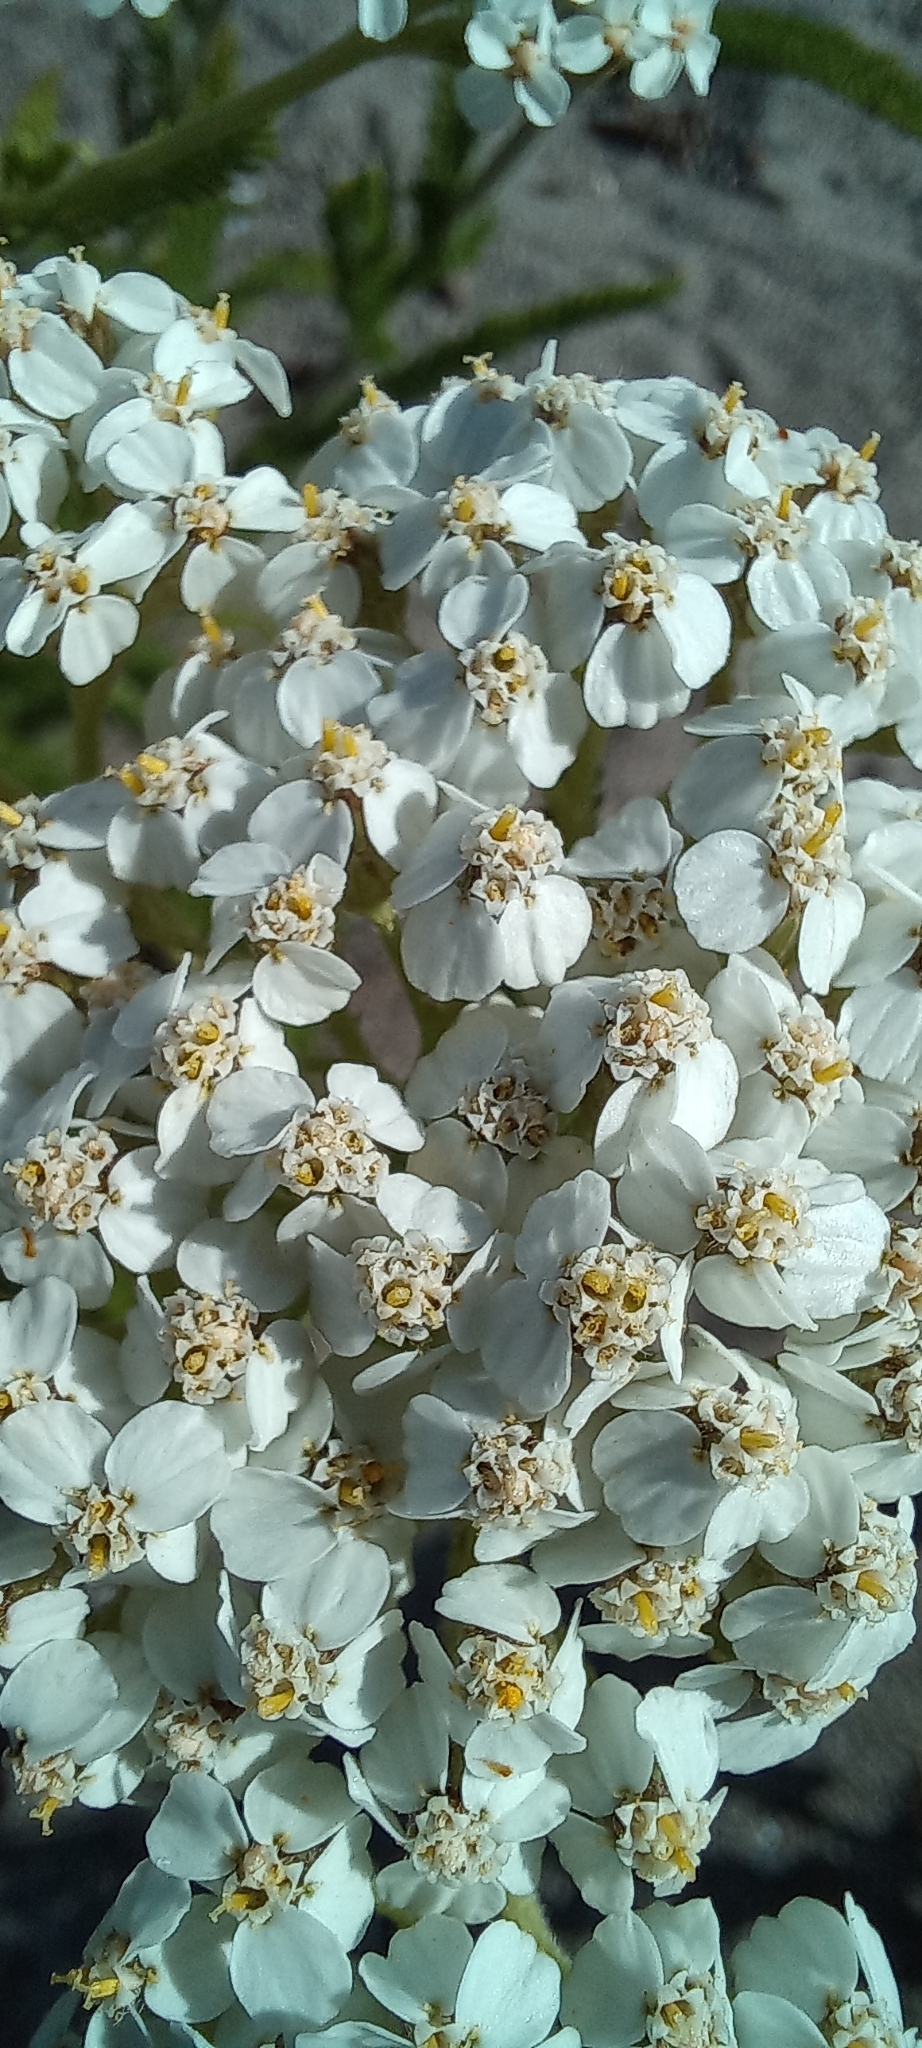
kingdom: Plantae
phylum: Tracheophyta
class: Magnoliopsida
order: Asterales
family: Asteraceae
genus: Achillea
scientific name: Achillea millefolium
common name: Yarrow
